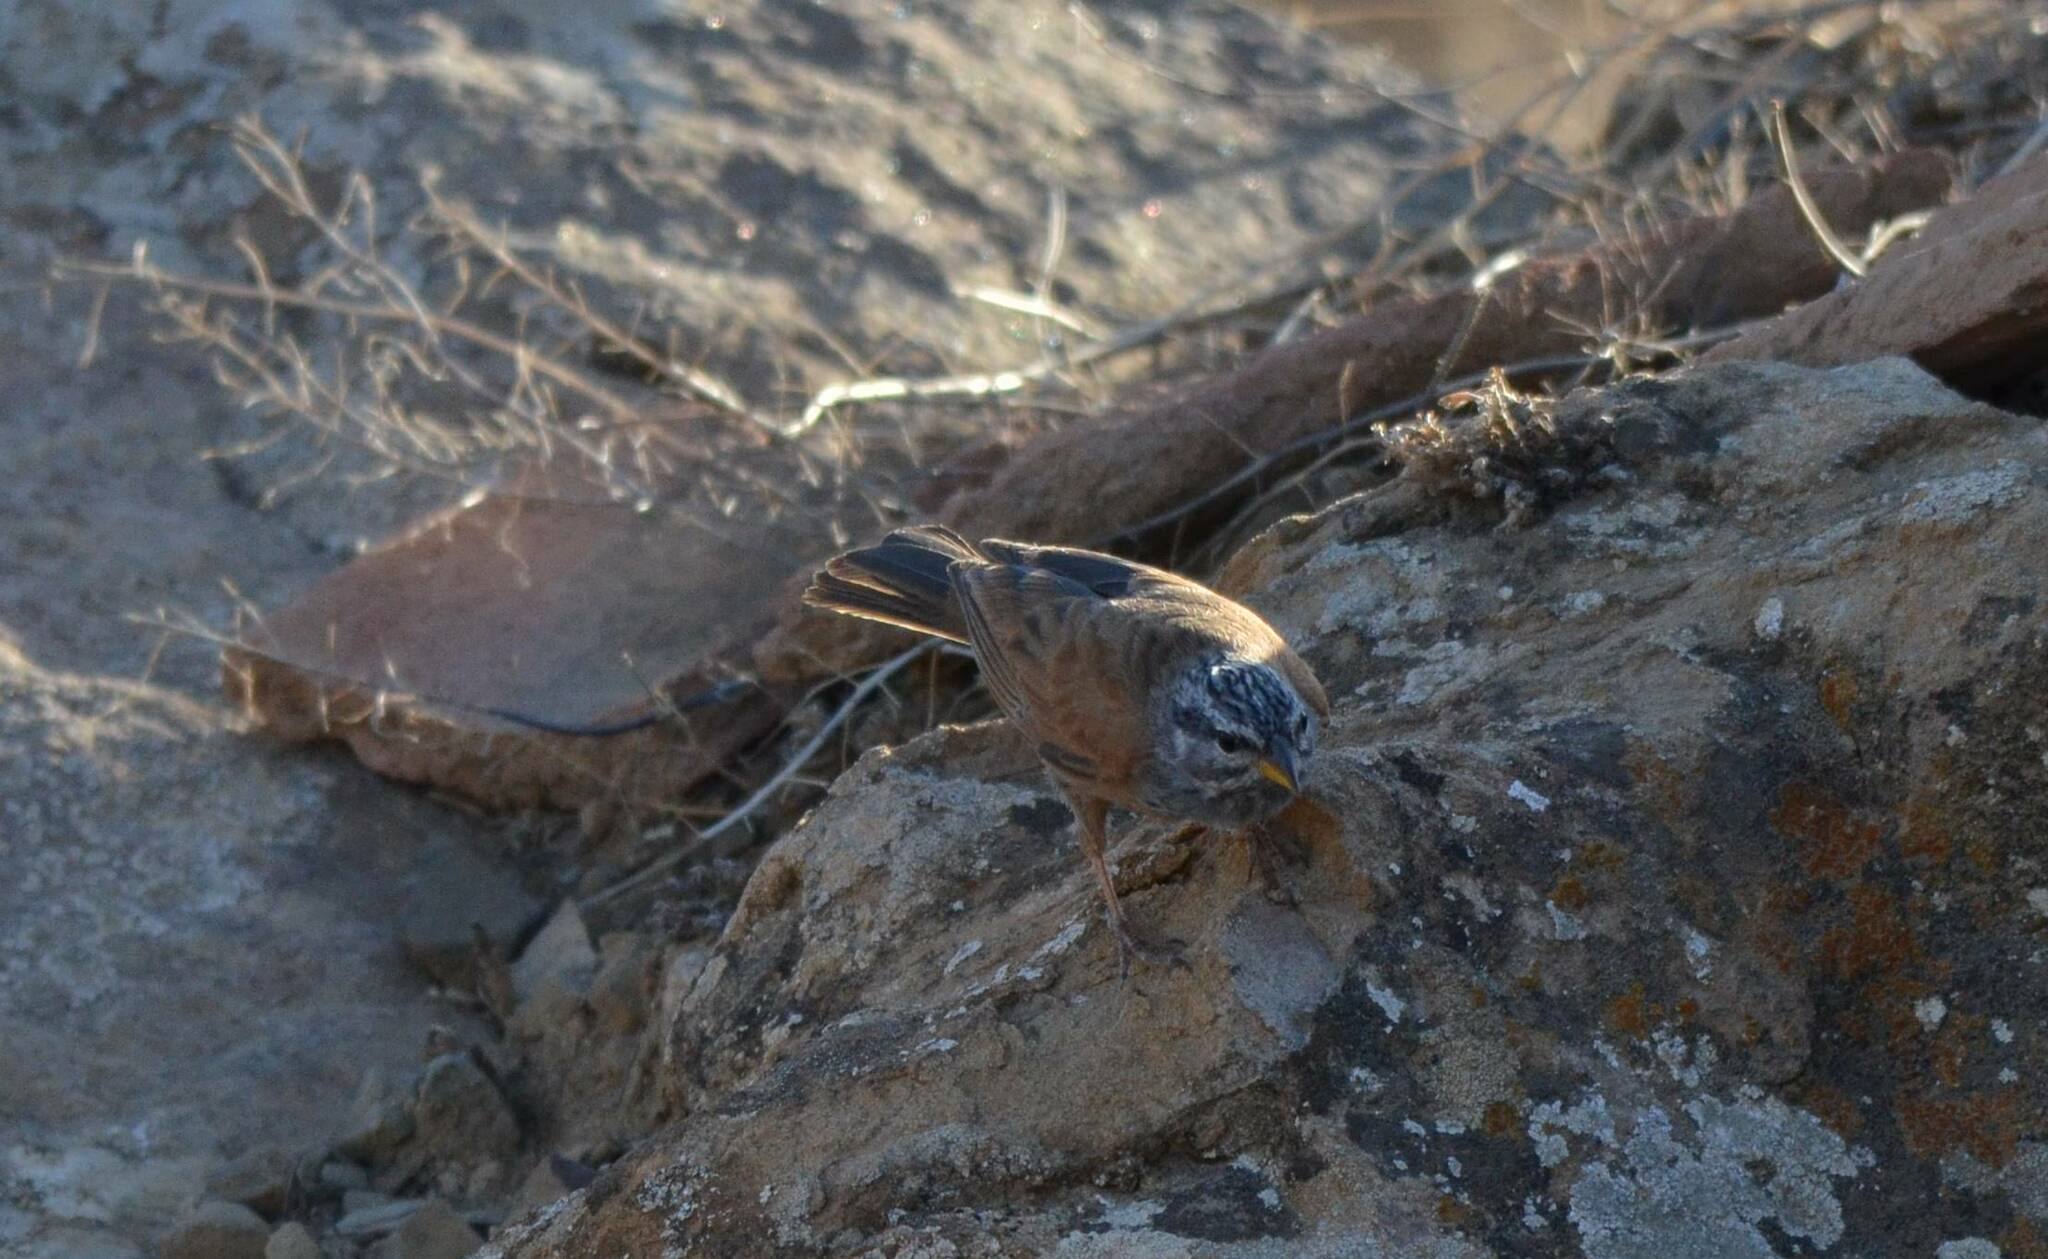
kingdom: Animalia
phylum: Chordata
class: Aves
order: Passeriformes
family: Emberizidae
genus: Emberiza
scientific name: Emberiza sahari
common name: House bunting
